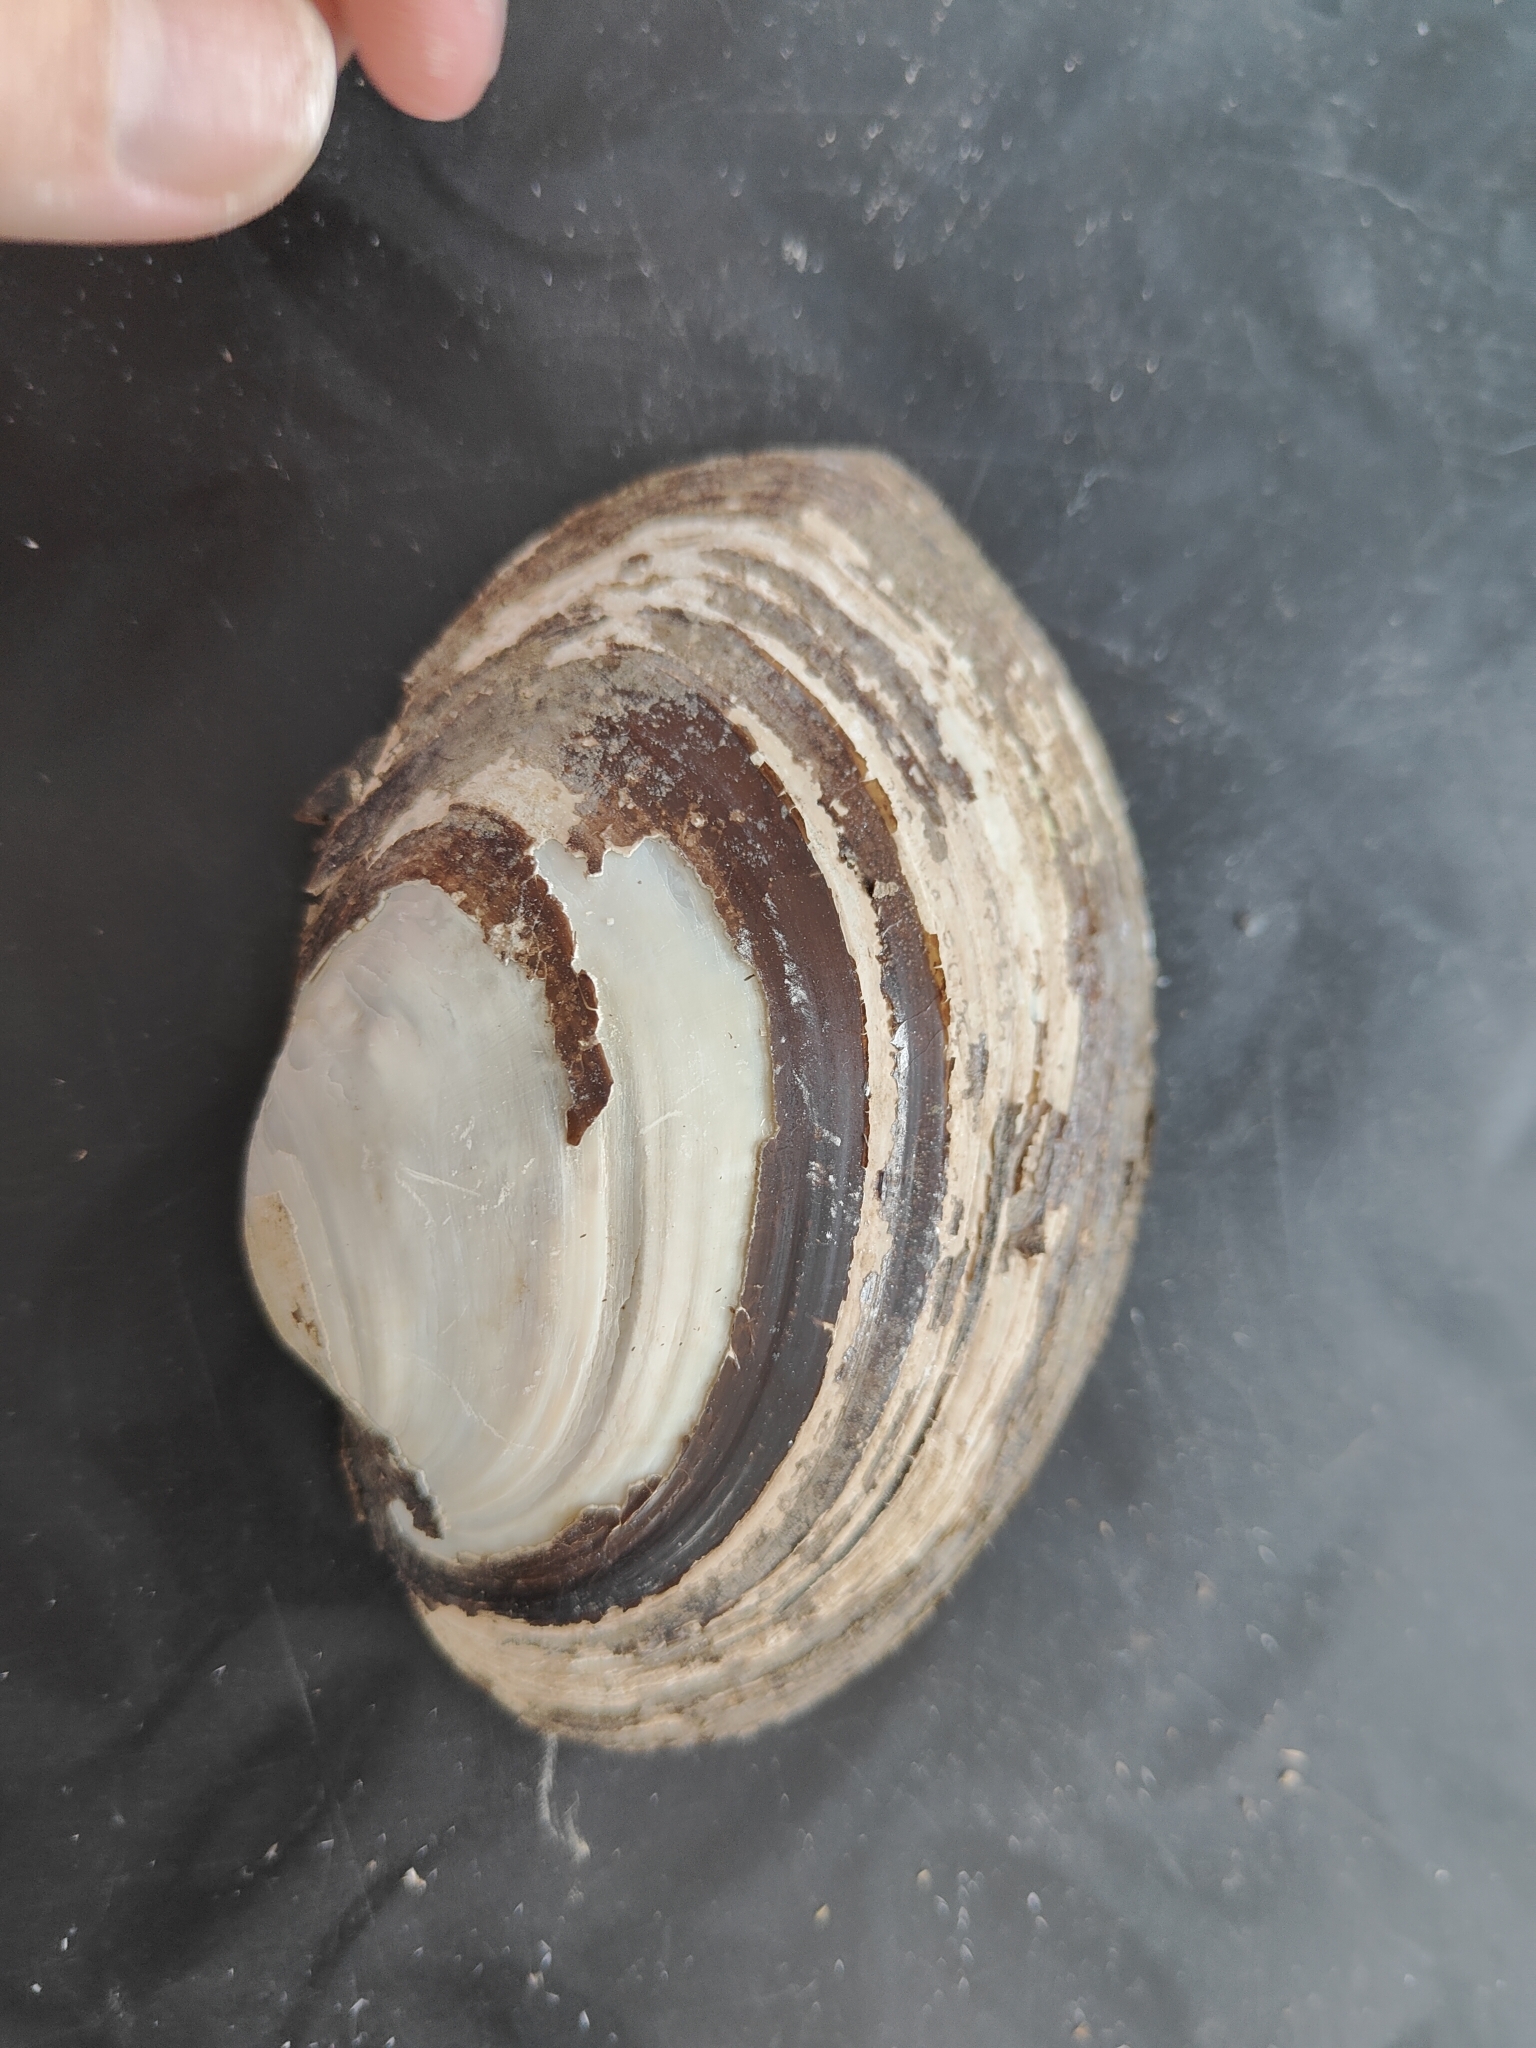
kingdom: Animalia
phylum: Mollusca
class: Bivalvia
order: Unionida
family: Unionidae
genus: Lampsilis
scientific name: Lampsilis cardium
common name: Plain pocketbook
